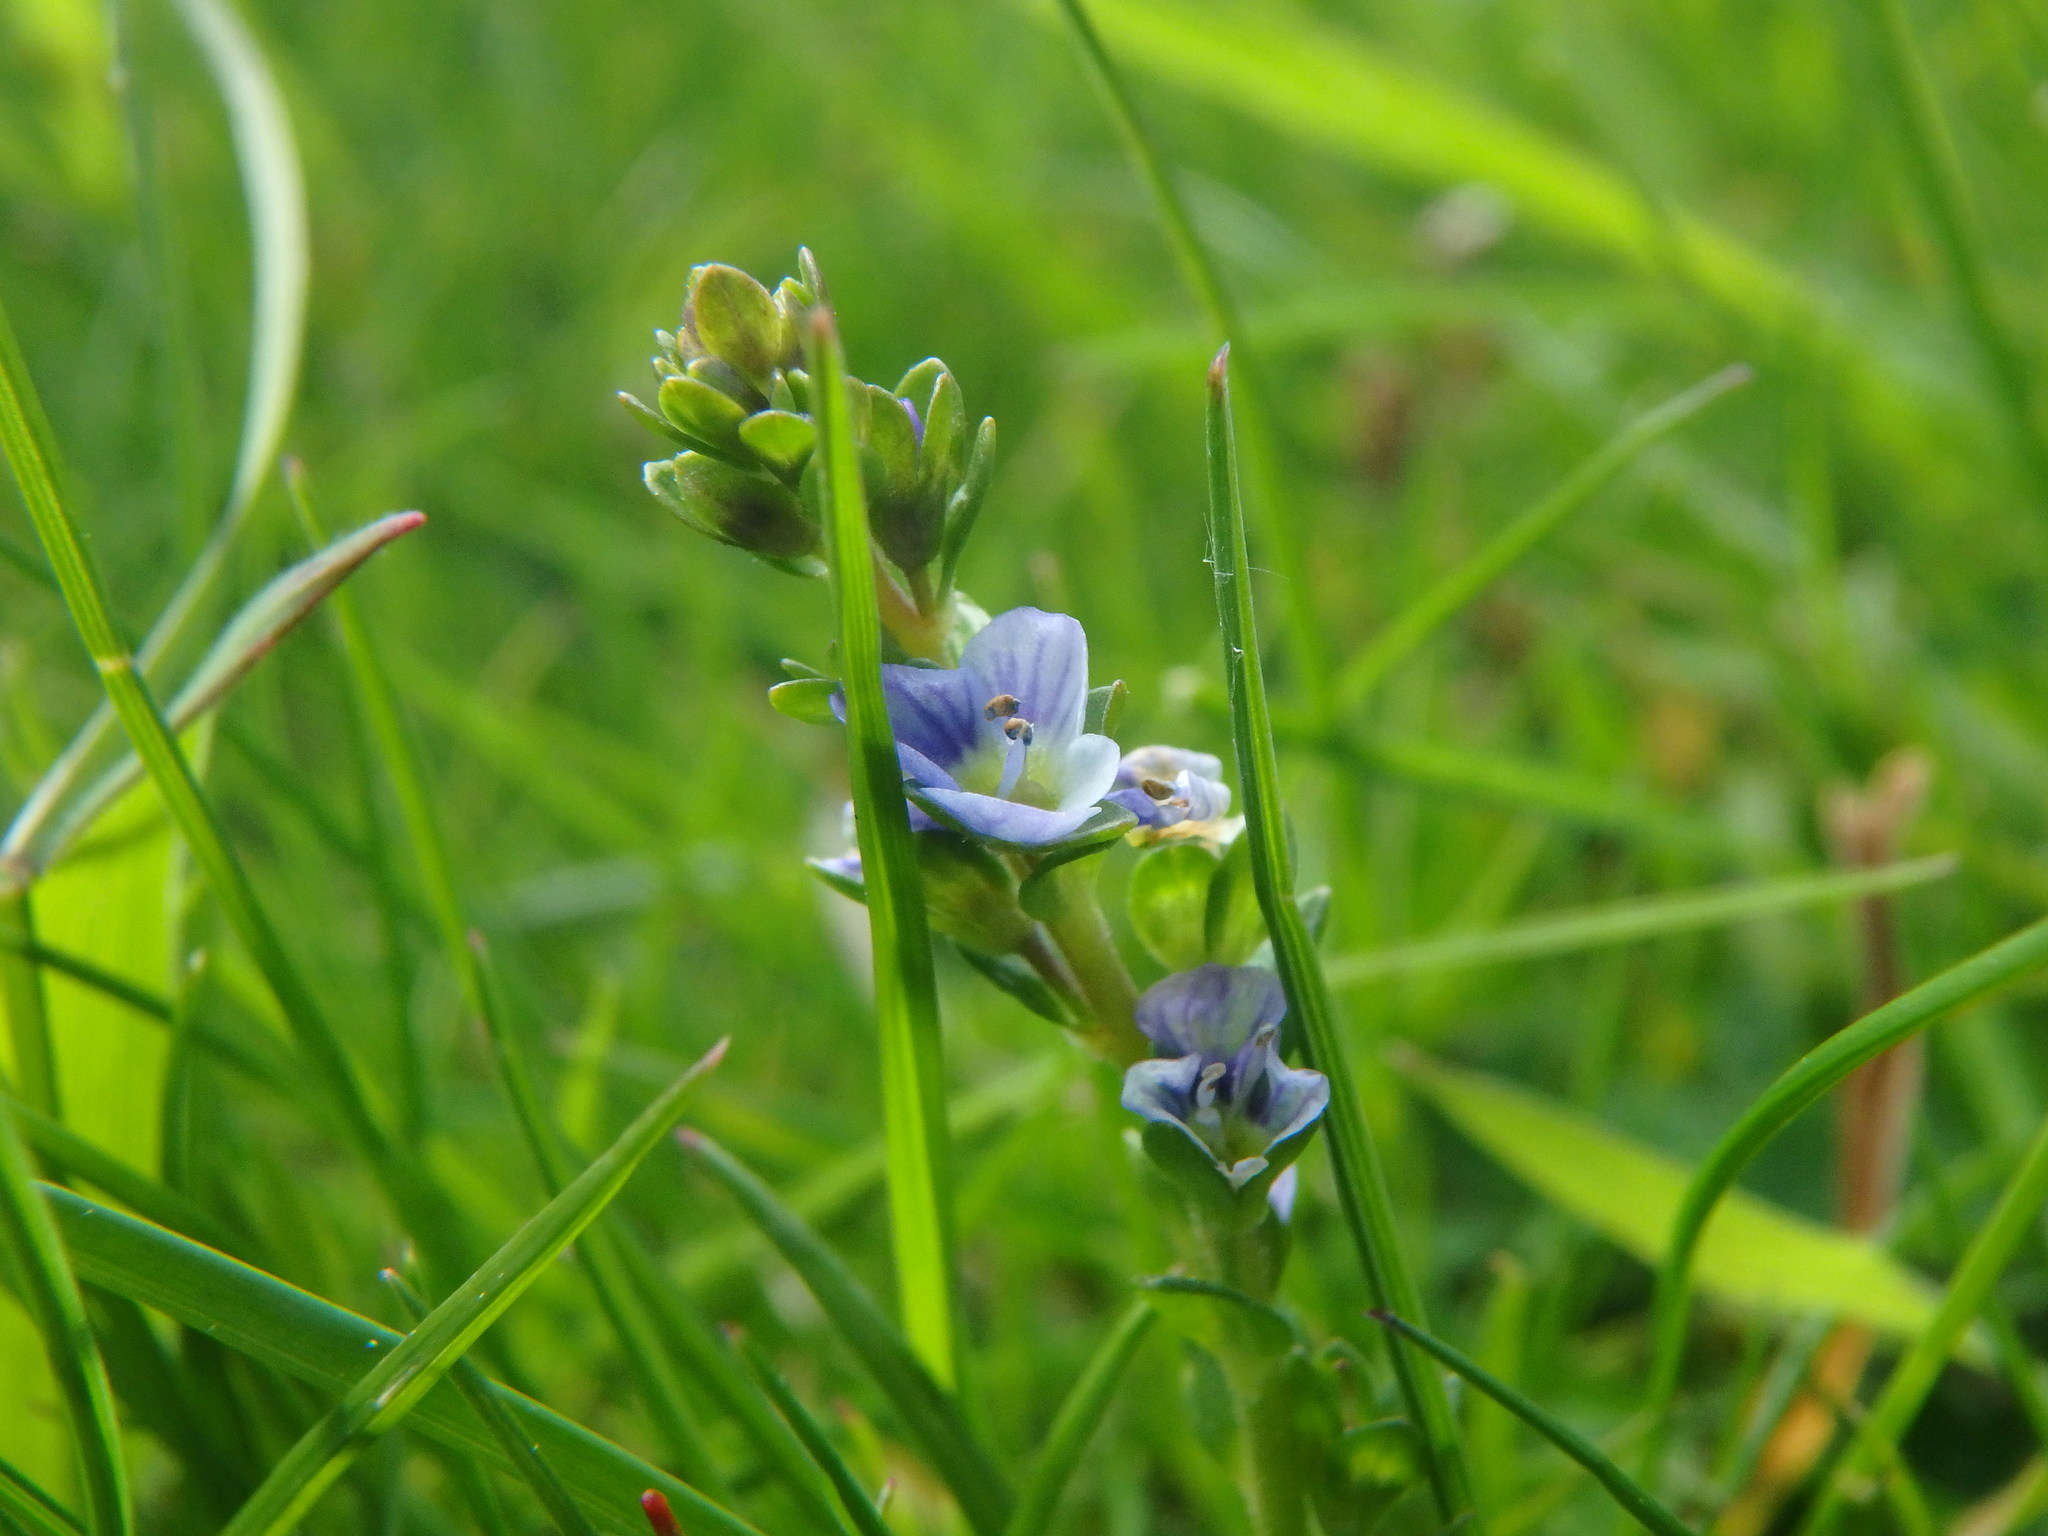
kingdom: Plantae
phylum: Tracheophyta
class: Magnoliopsida
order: Lamiales
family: Plantaginaceae
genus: Veronica
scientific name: Veronica serpyllifolia
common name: Thyme-leaved speedwell
